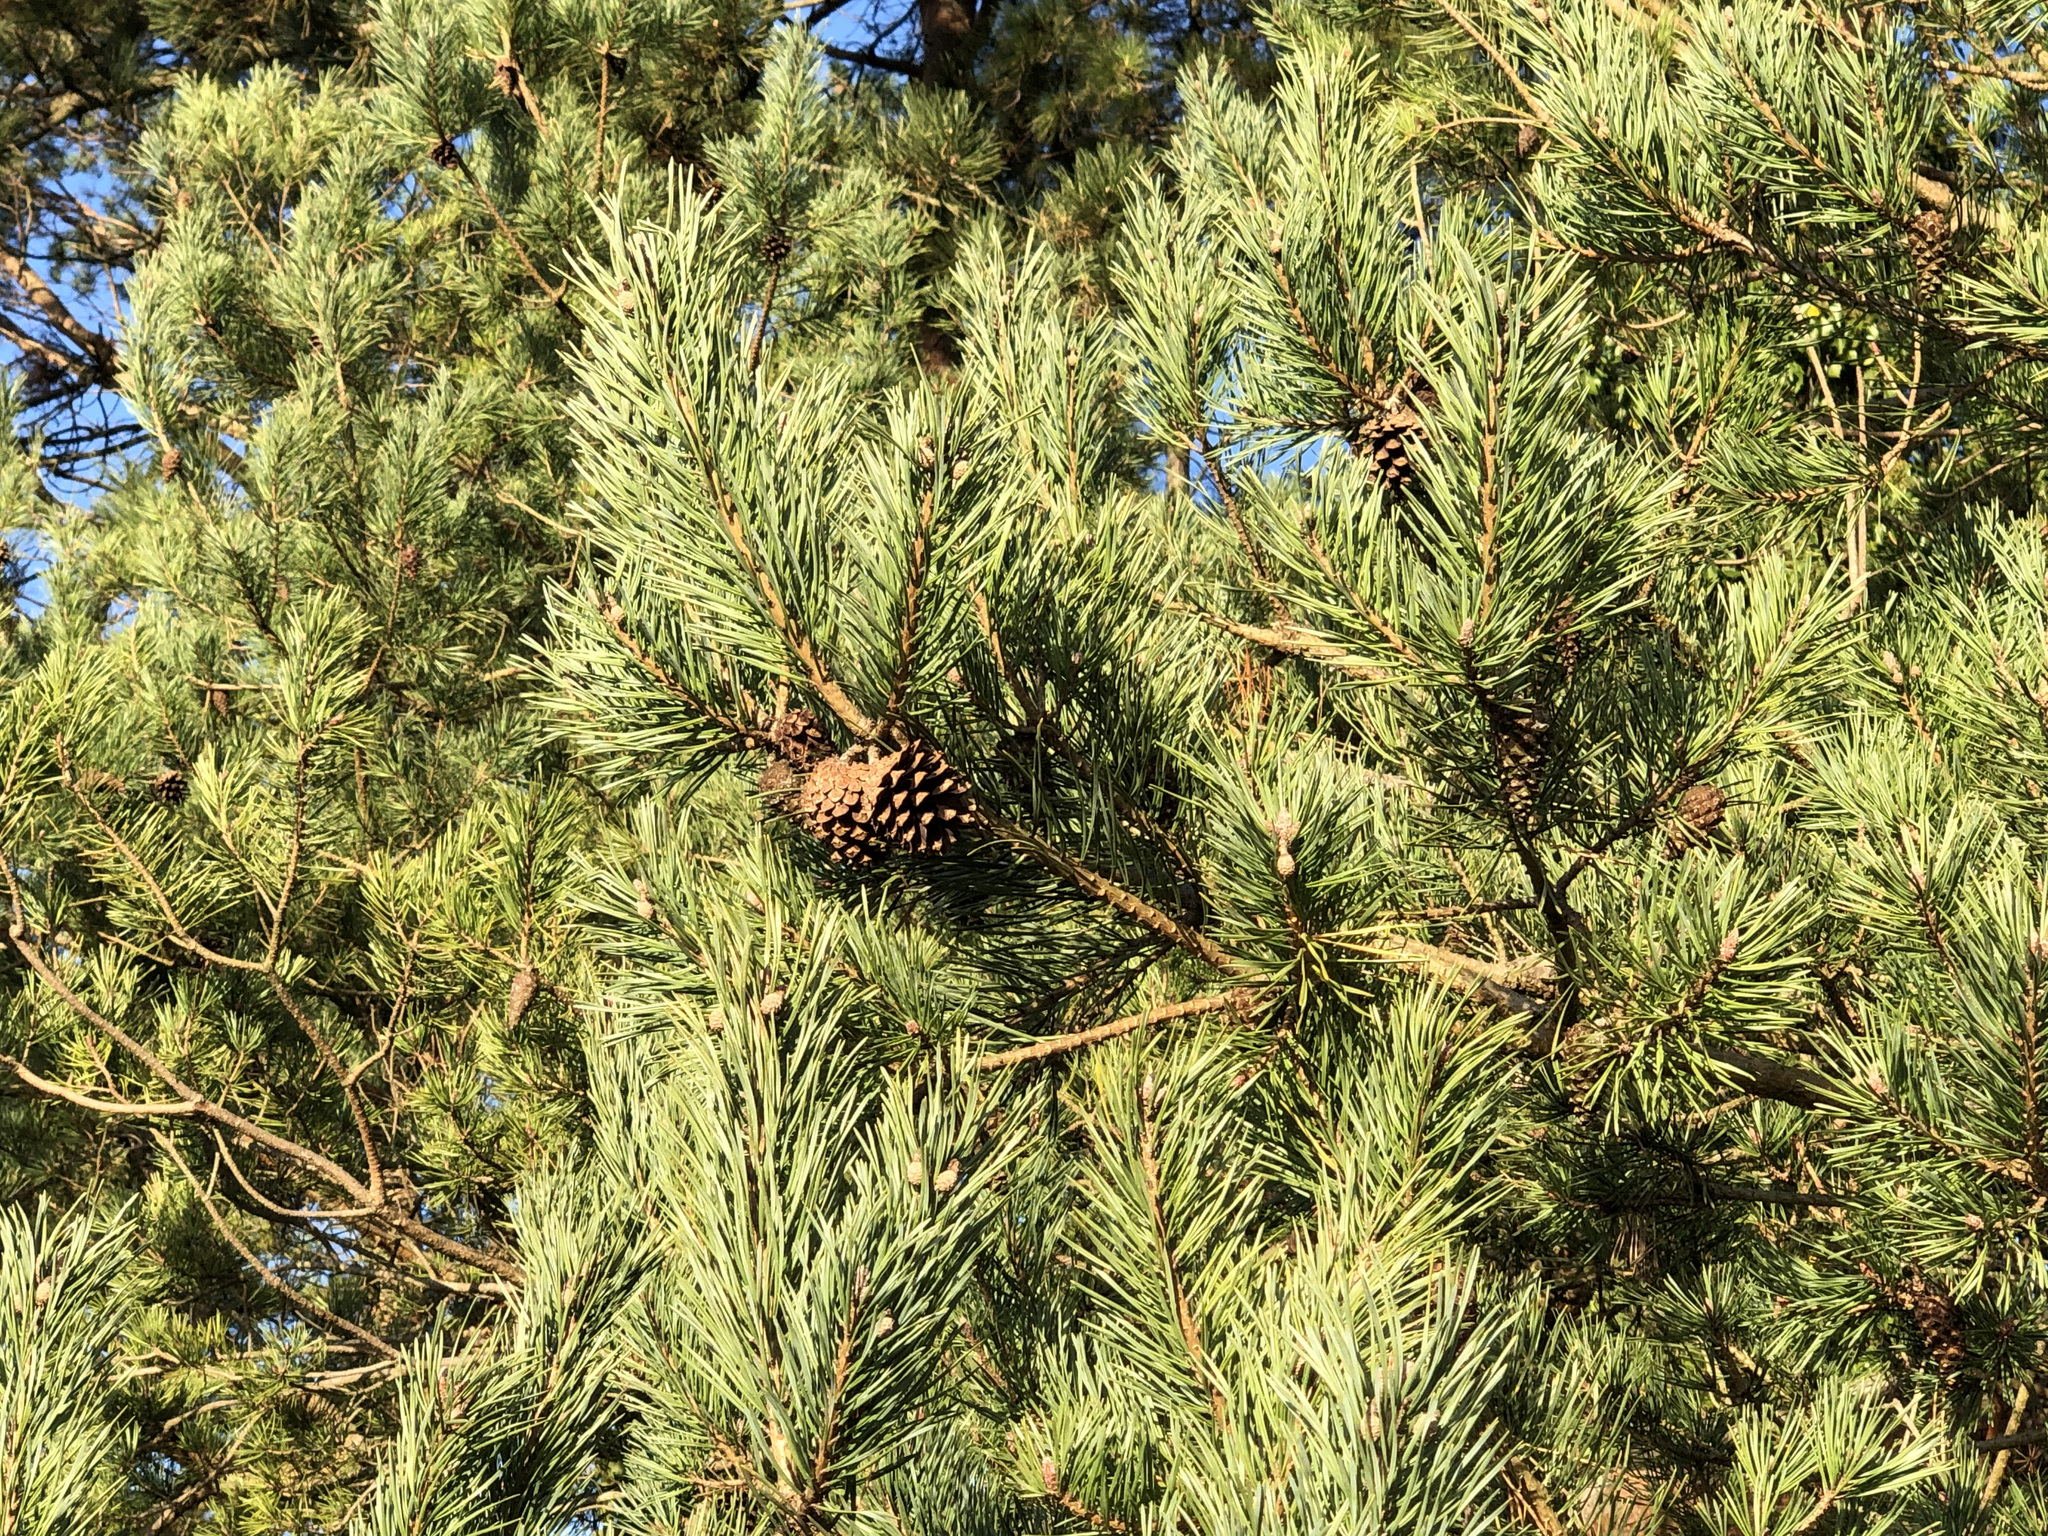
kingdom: Plantae
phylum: Tracheophyta
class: Pinopsida
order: Pinales
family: Pinaceae
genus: Pinus
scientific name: Pinus sylvestris
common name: Scots pine
